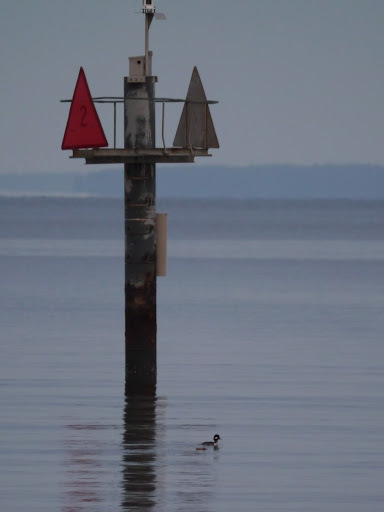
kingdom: Animalia
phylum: Chordata
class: Aves
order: Anseriformes
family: Anatidae
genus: Bucephala
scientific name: Bucephala albeola
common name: Bufflehead
